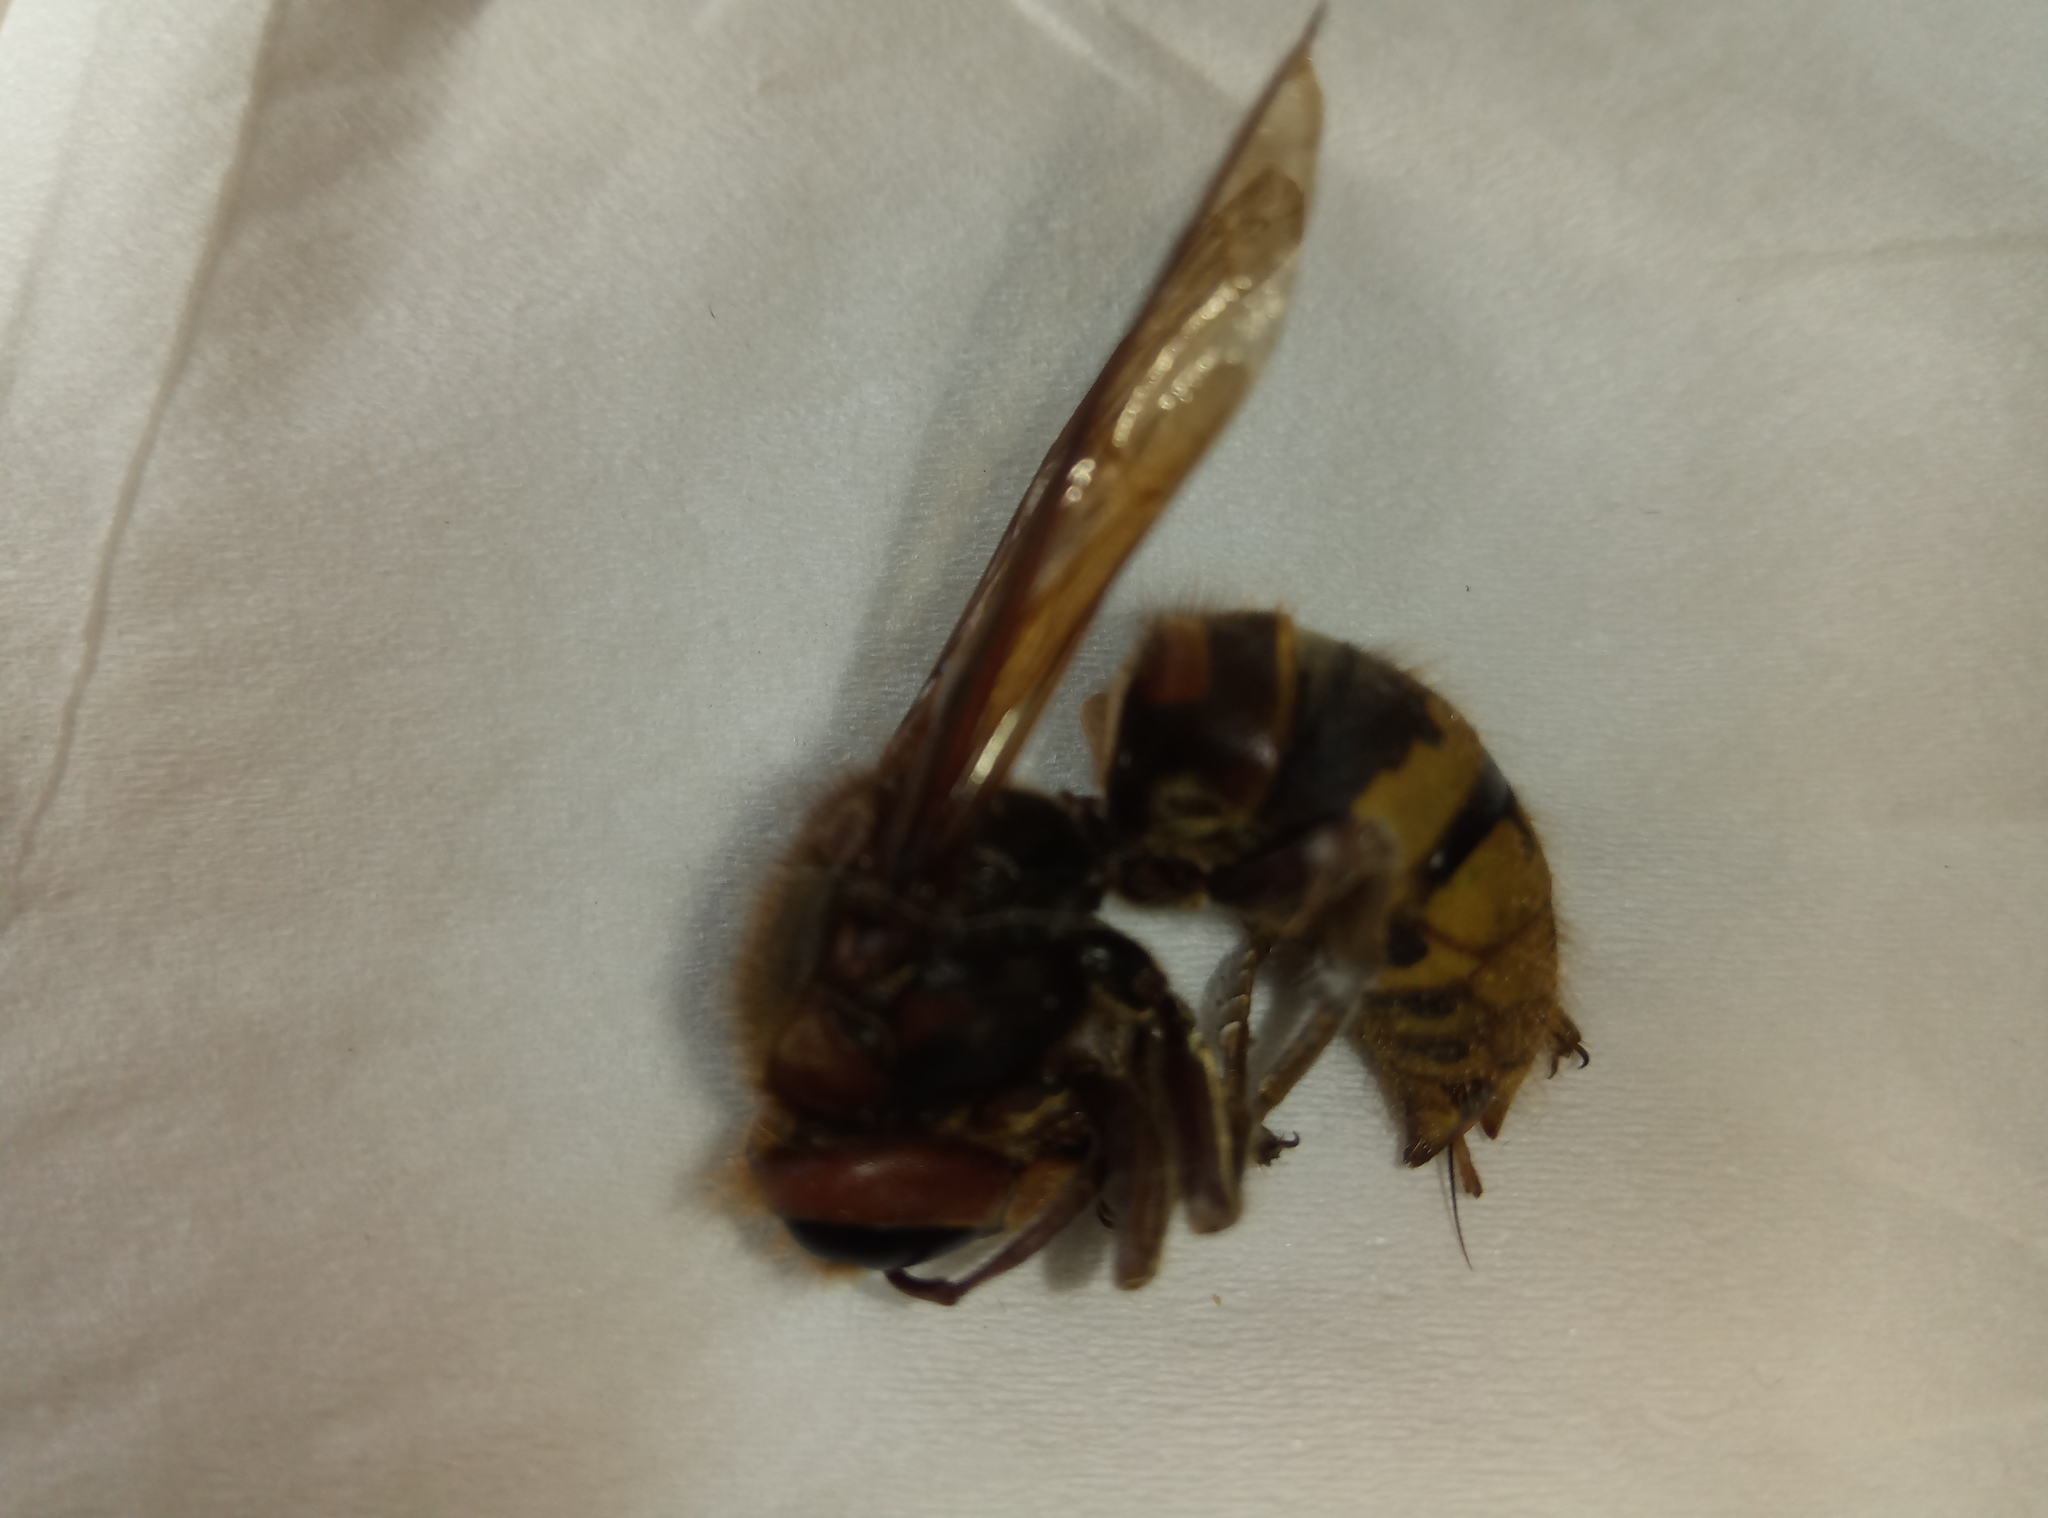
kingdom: Animalia
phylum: Arthropoda
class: Insecta
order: Hymenoptera
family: Vespidae
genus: Vespa
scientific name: Vespa crabro
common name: Hornet
